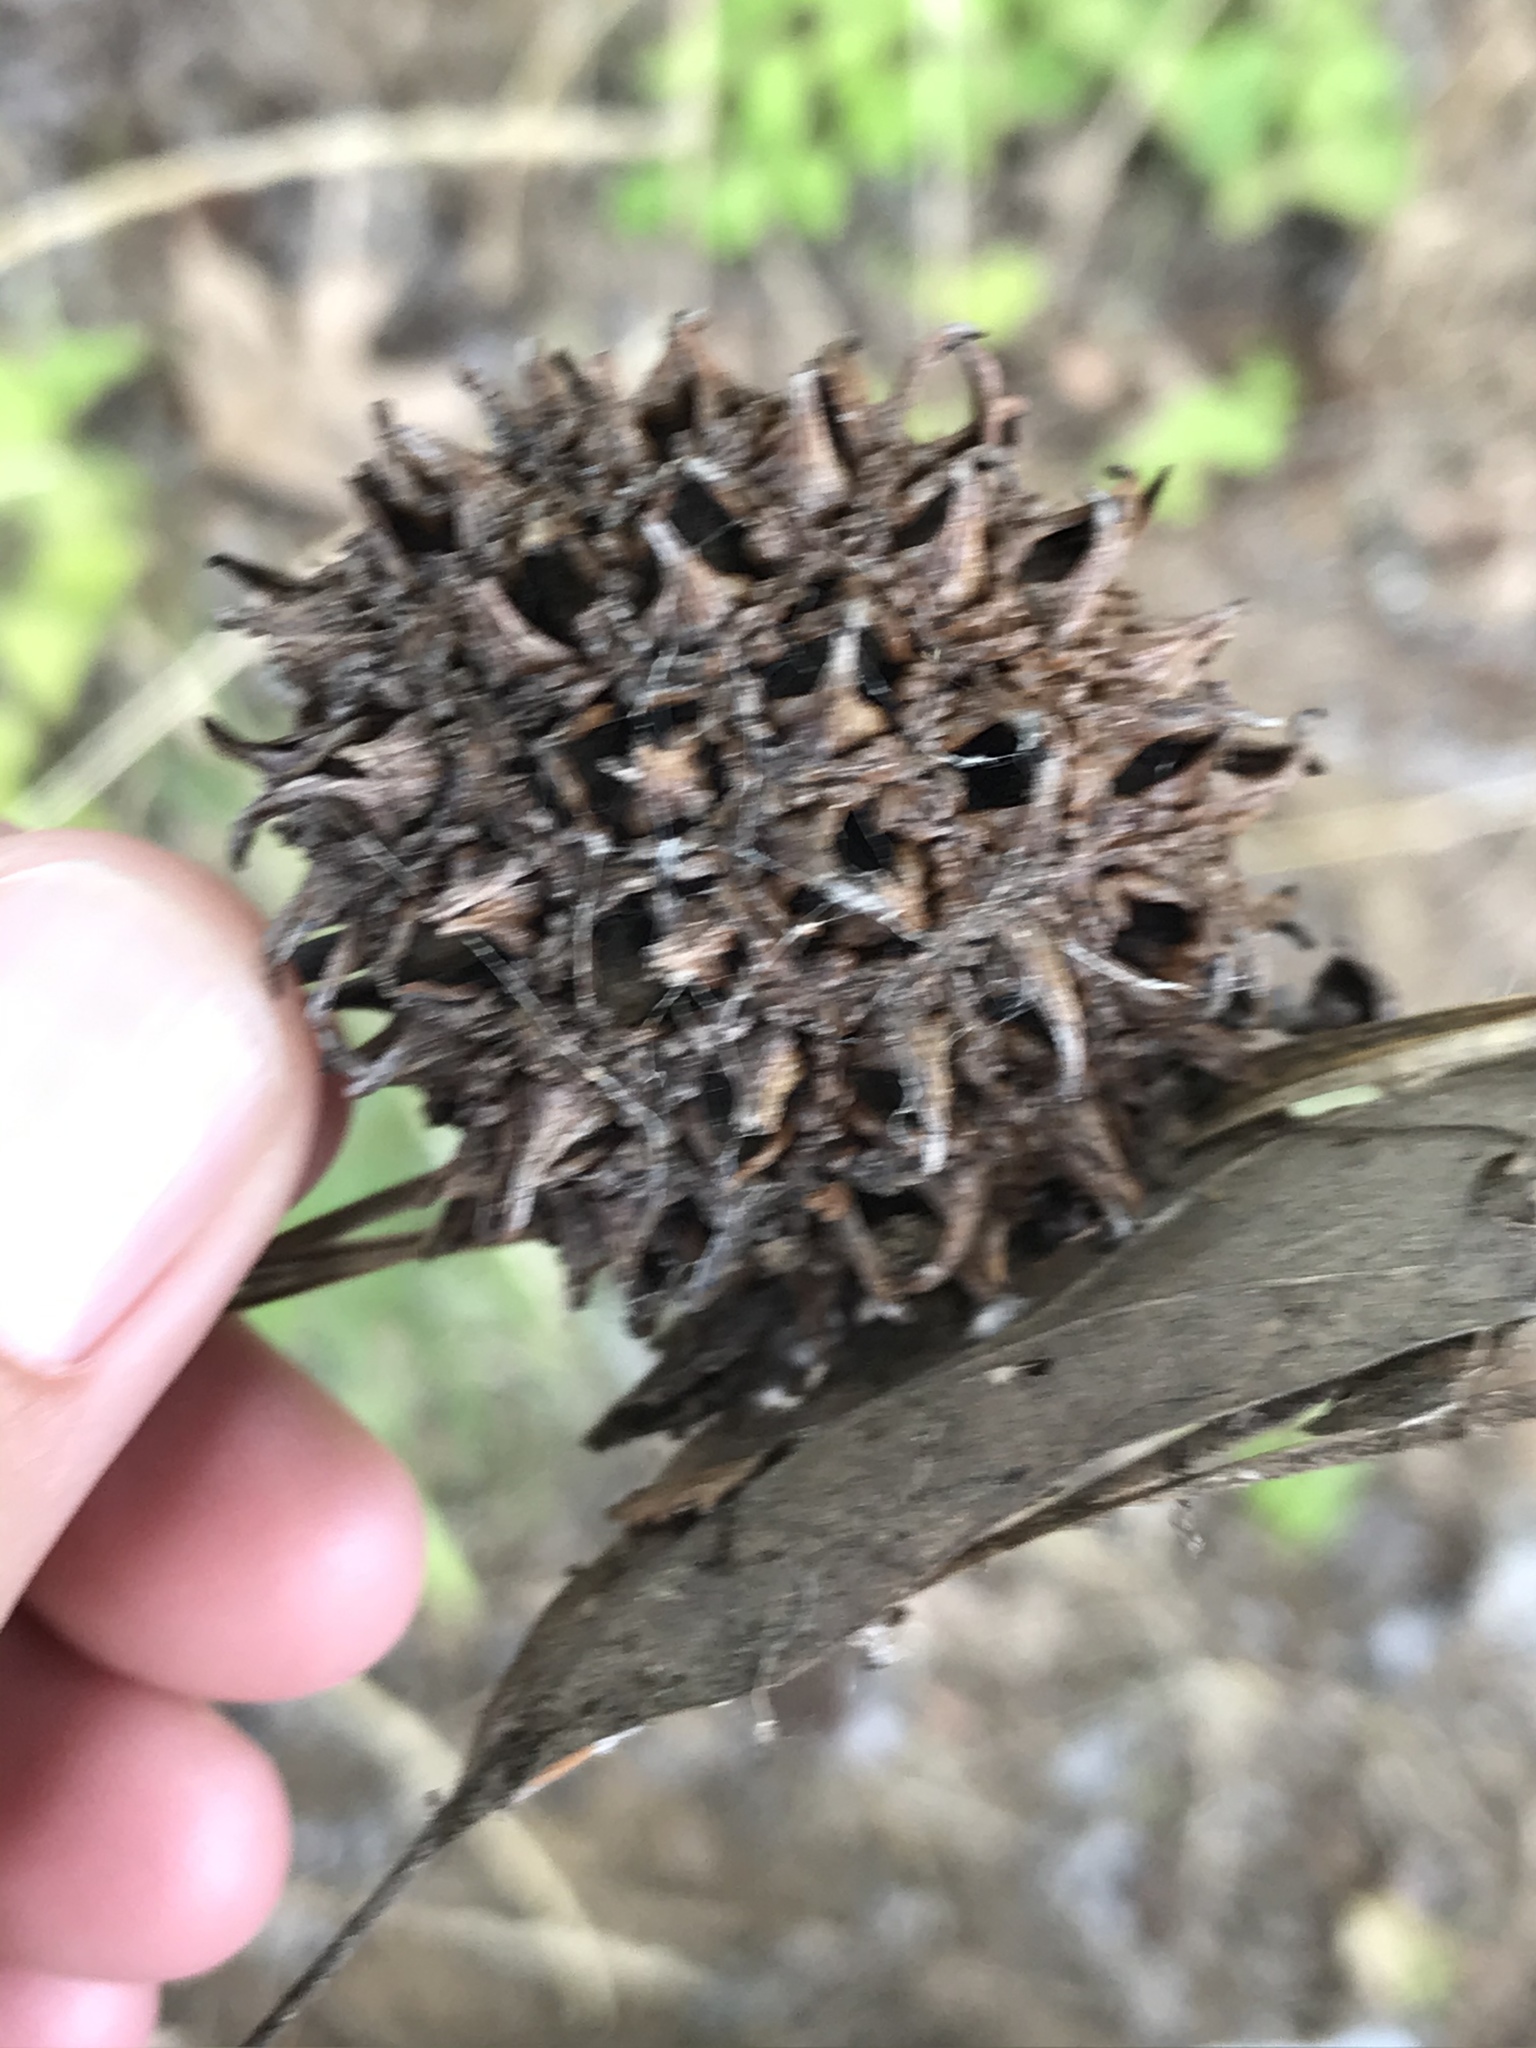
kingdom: Plantae
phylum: Tracheophyta
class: Magnoliopsida
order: Saxifragales
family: Altingiaceae
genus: Liquidambar
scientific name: Liquidambar styraciflua
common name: Sweet gum
